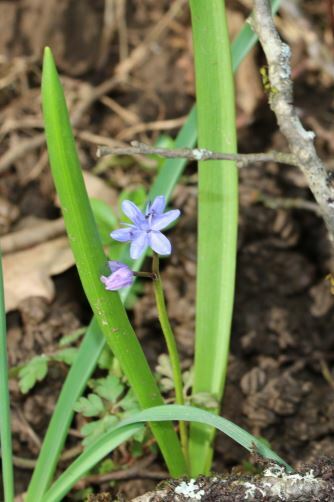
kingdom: Plantae
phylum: Tracheophyta
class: Liliopsida
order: Asparagales
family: Asparagaceae
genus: Scilla
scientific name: Scilla bifolia
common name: Alpine squill
